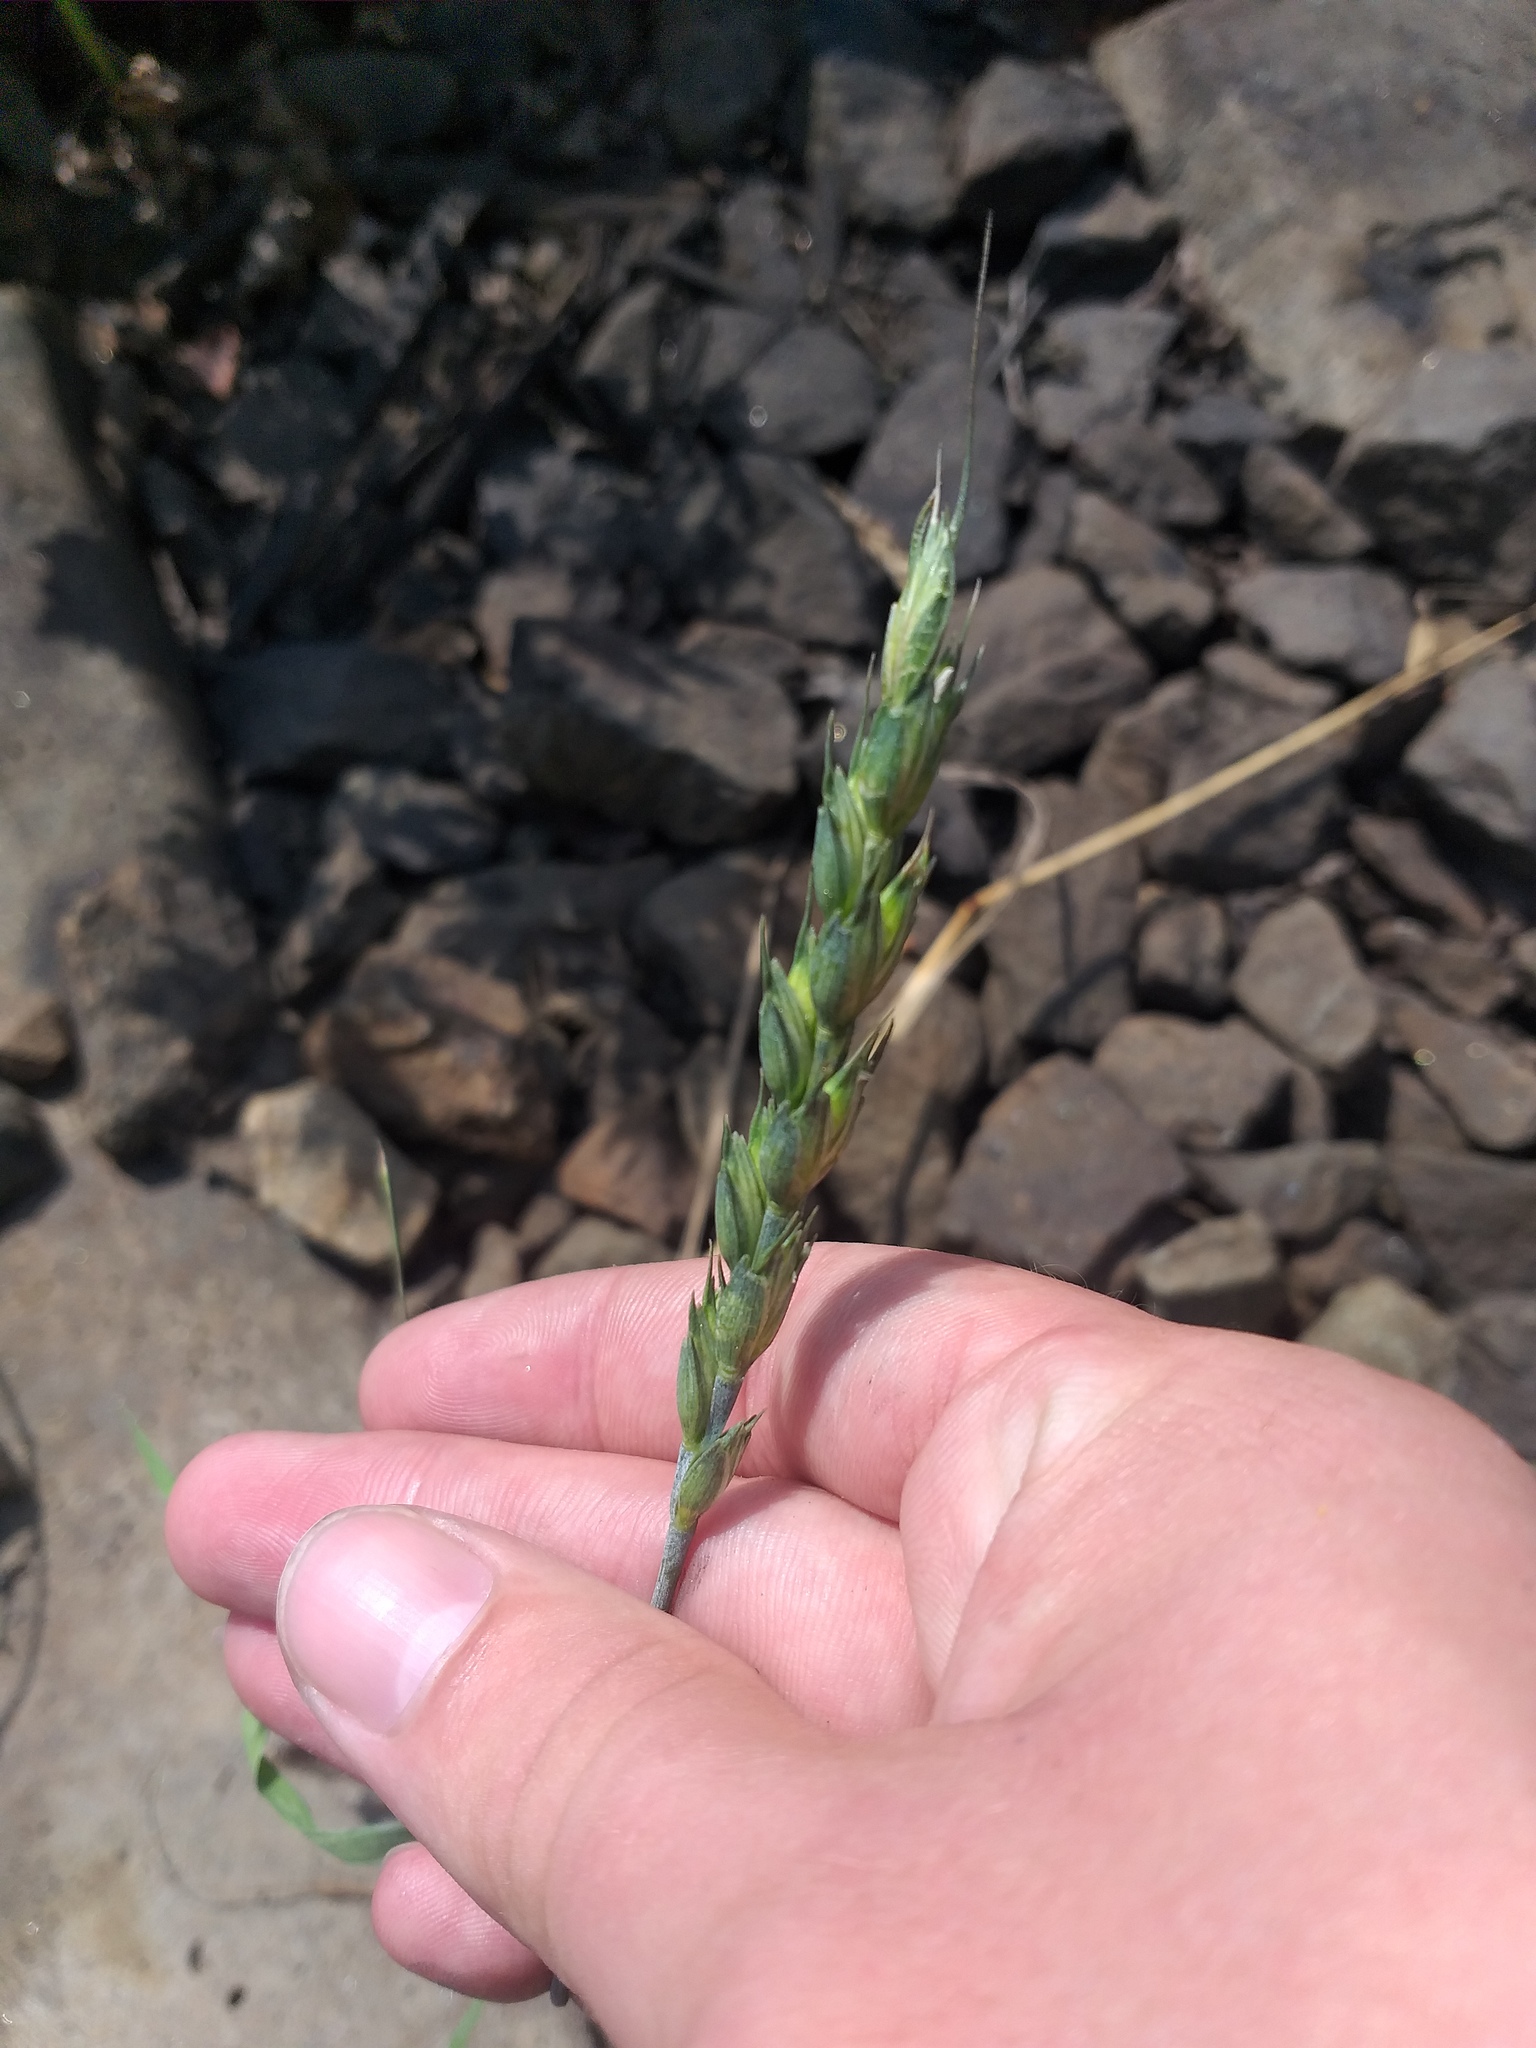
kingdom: Plantae
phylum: Tracheophyta
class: Liliopsida
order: Poales
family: Poaceae
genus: Triticum
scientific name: Triticum aestivum
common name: Common wheat
